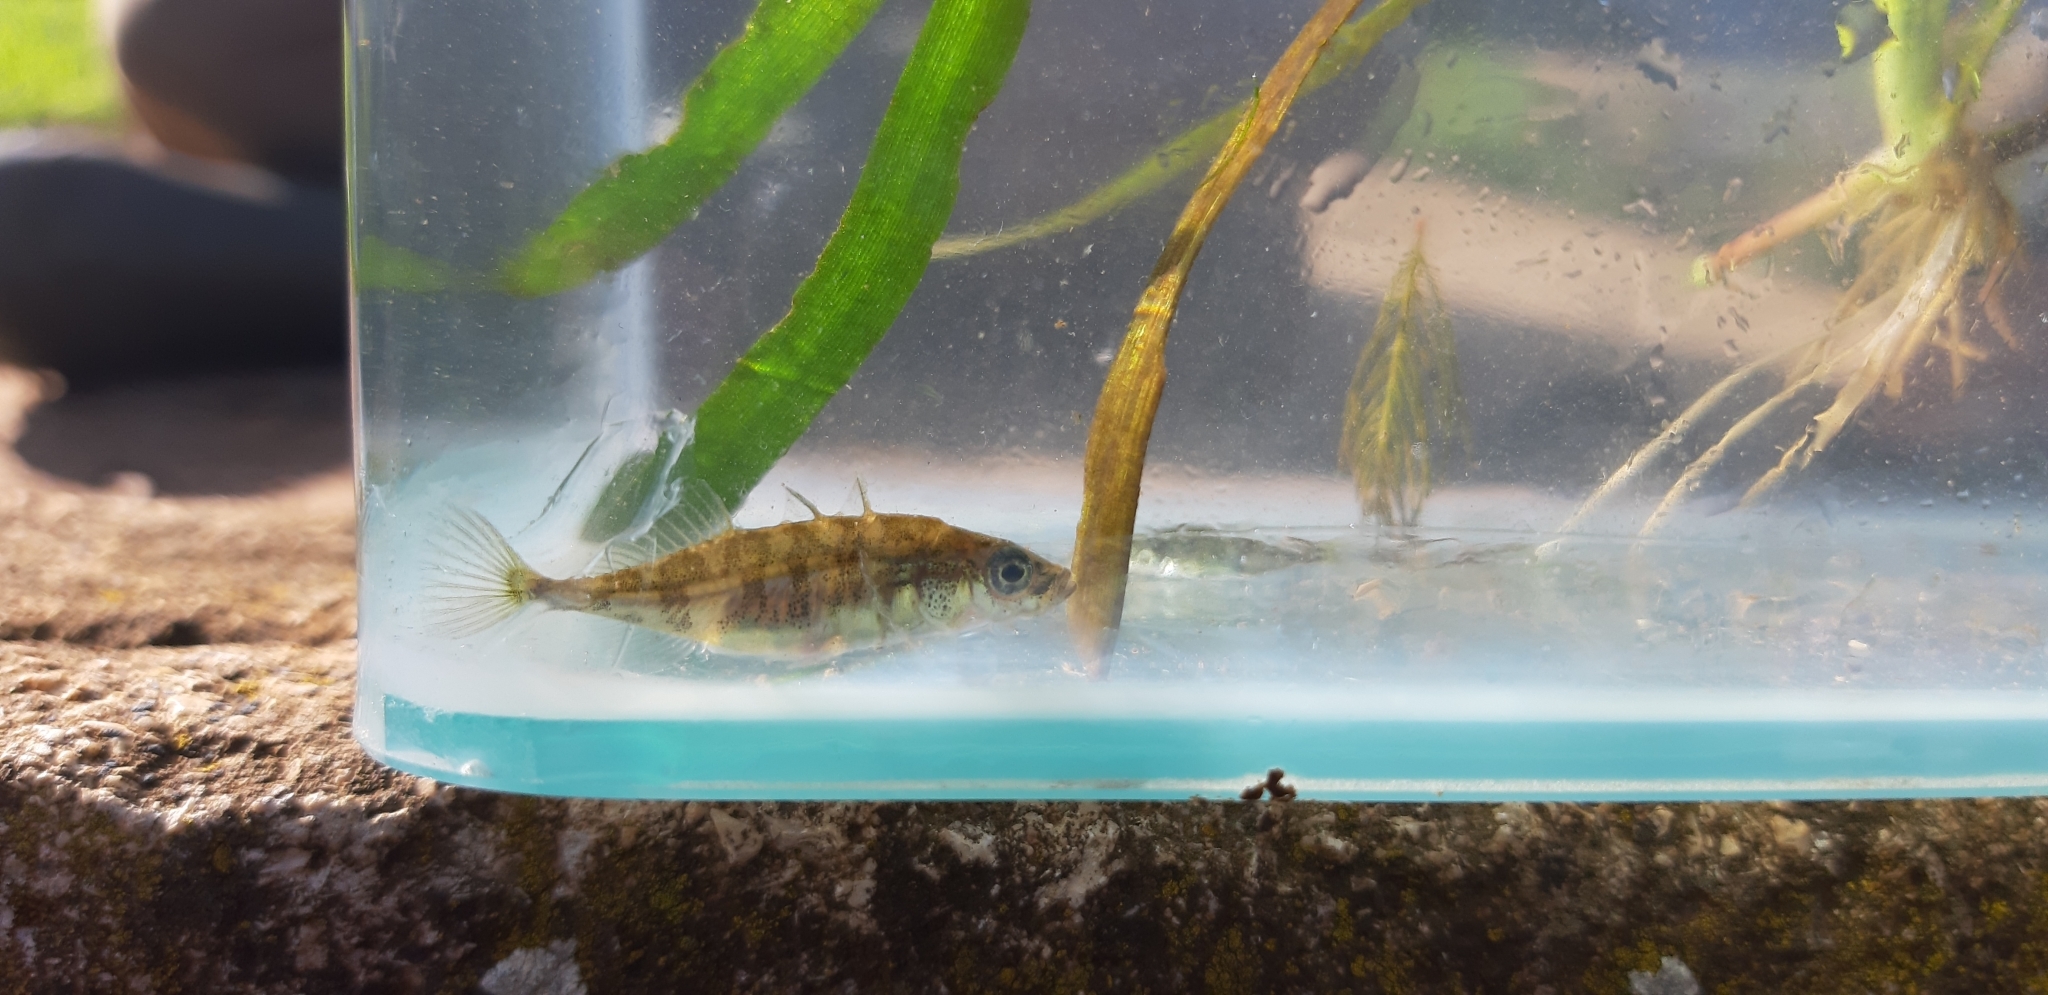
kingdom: Animalia
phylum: Chordata
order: Gasterosteiformes
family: Gasterosteidae
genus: Gasterosteus
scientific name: Gasterosteus aculeatus
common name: Three-spined stickleback
